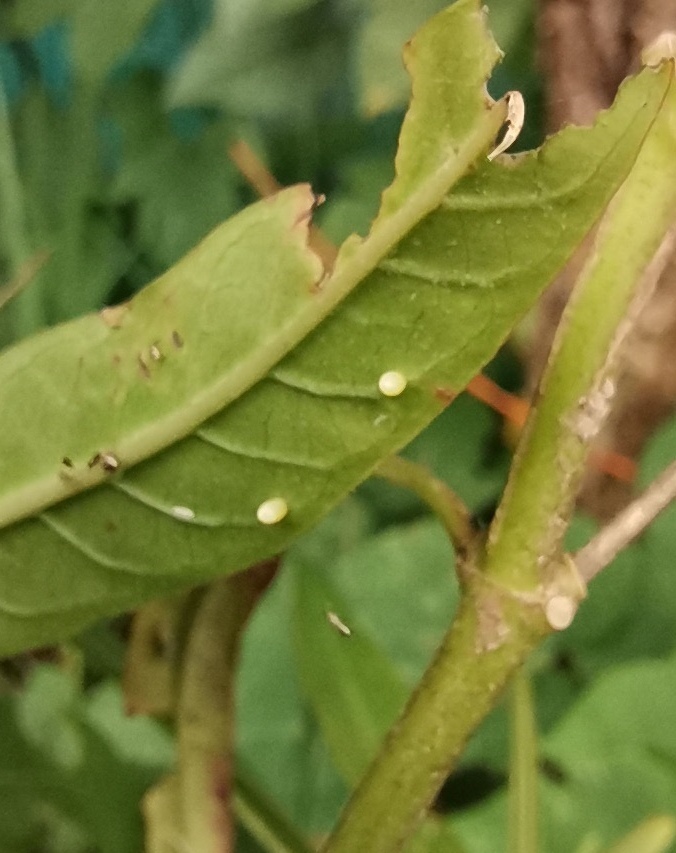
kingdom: Animalia
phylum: Arthropoda
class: Insecta
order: Lepidoptera
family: Nymphalidae
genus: Danaus
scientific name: Danaus plexippus
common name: Monarch
